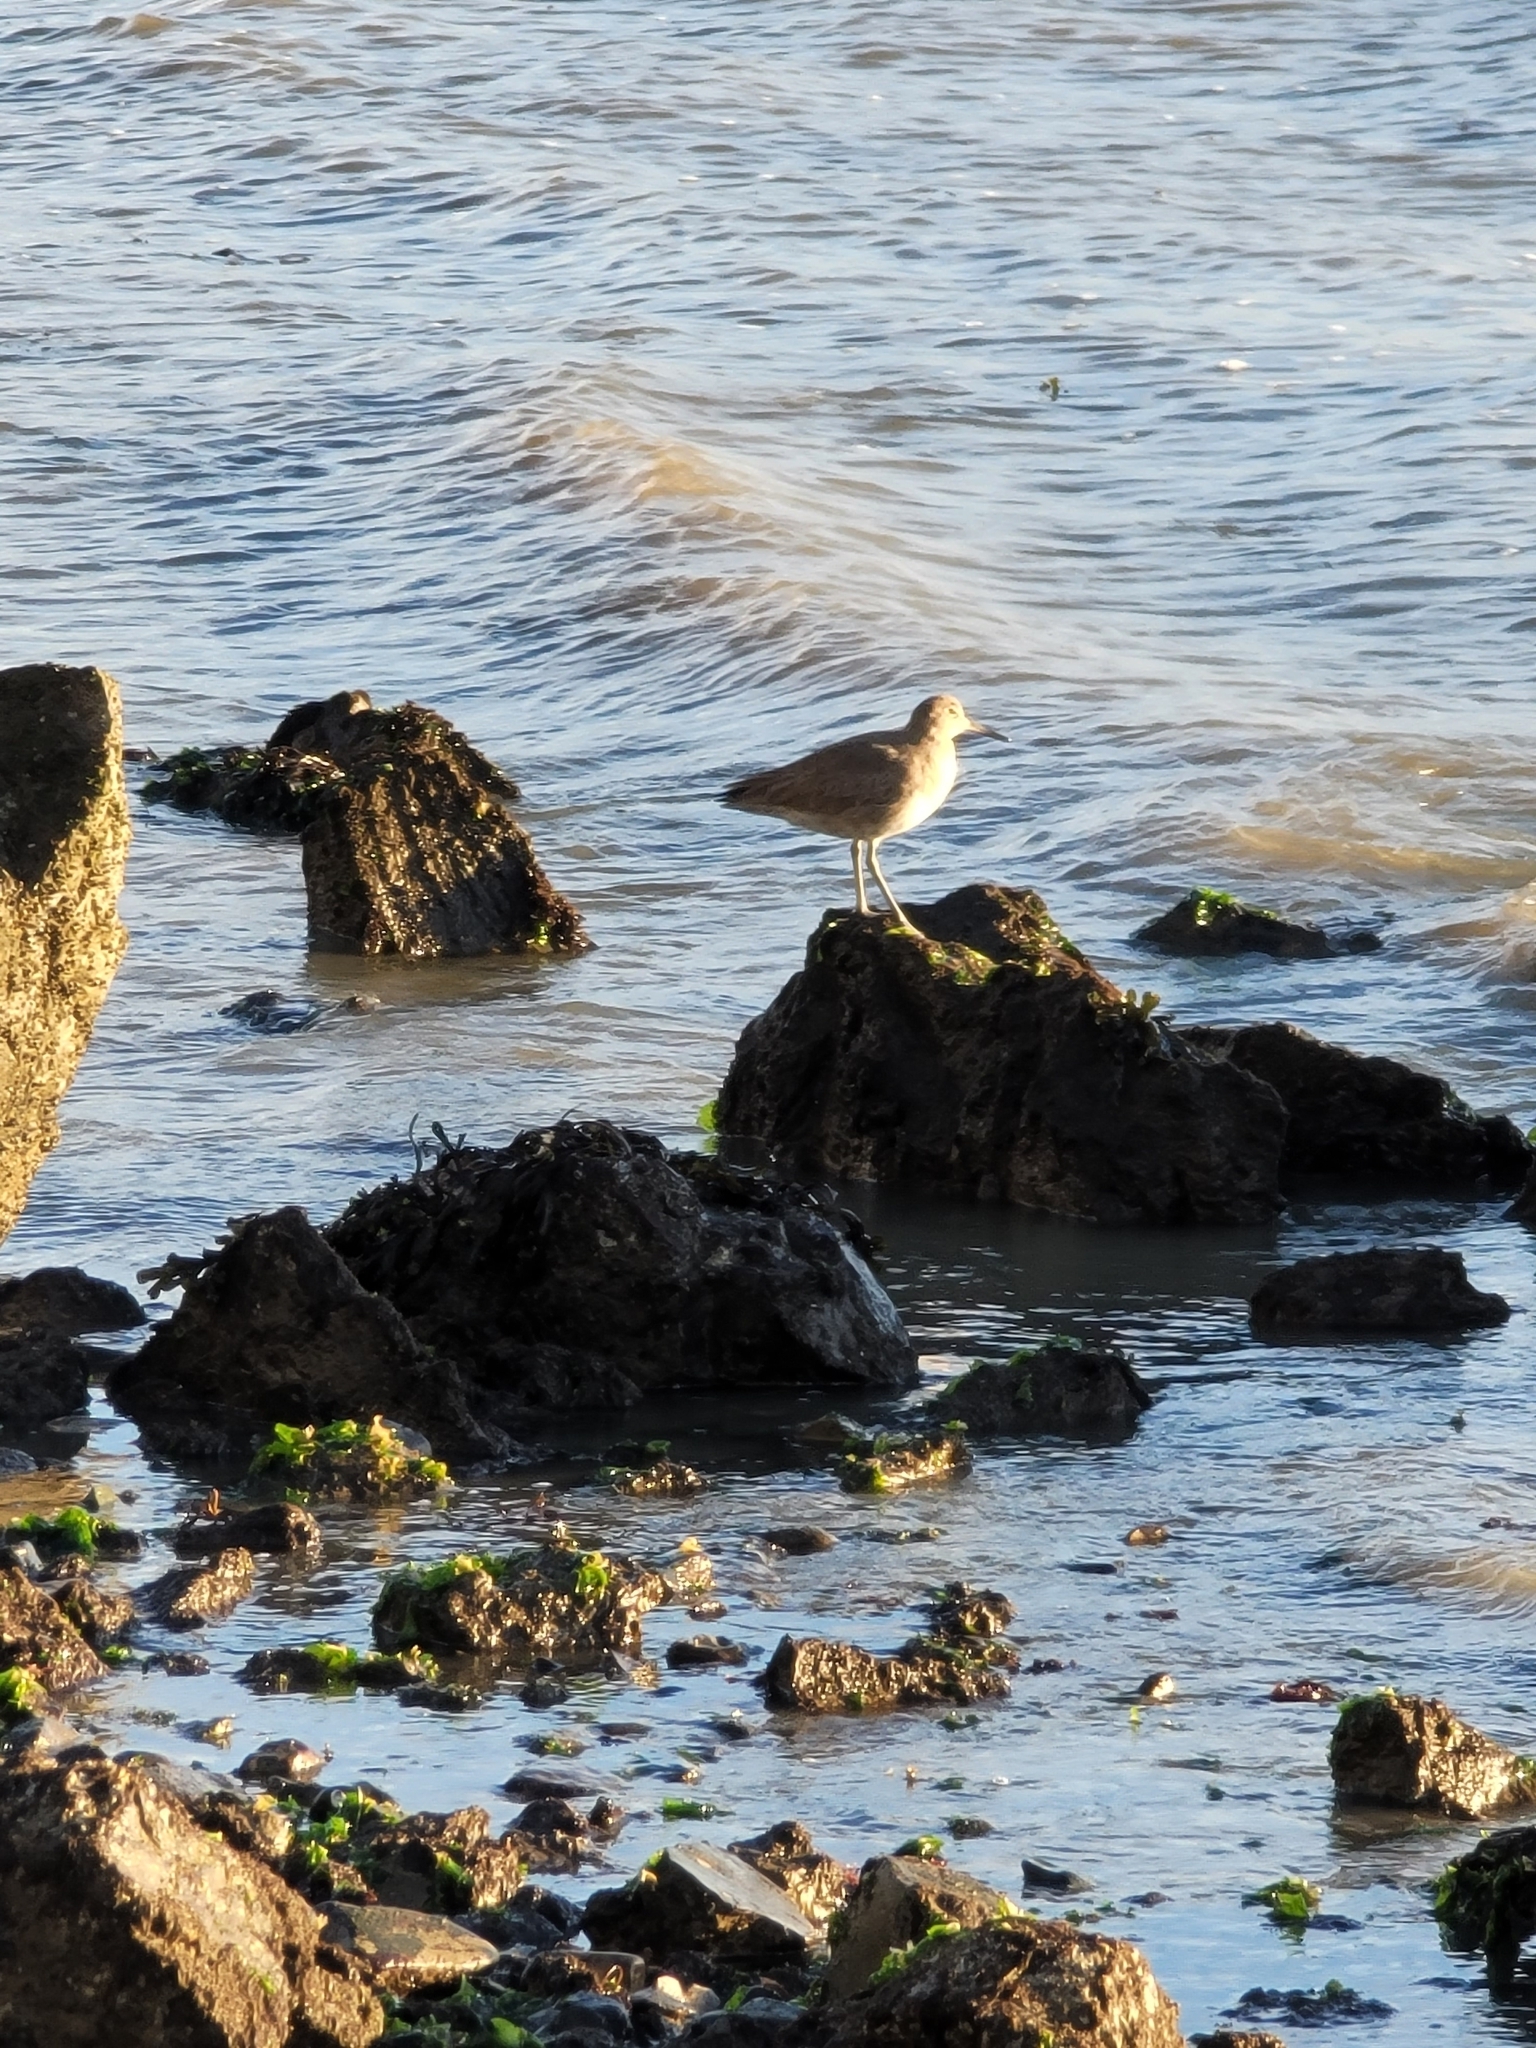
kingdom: Animalia
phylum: Chordata
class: Aves
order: Charadriiformes
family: Scolopacidae
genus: Tringa
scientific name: Tringa semipalmata
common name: Willet
